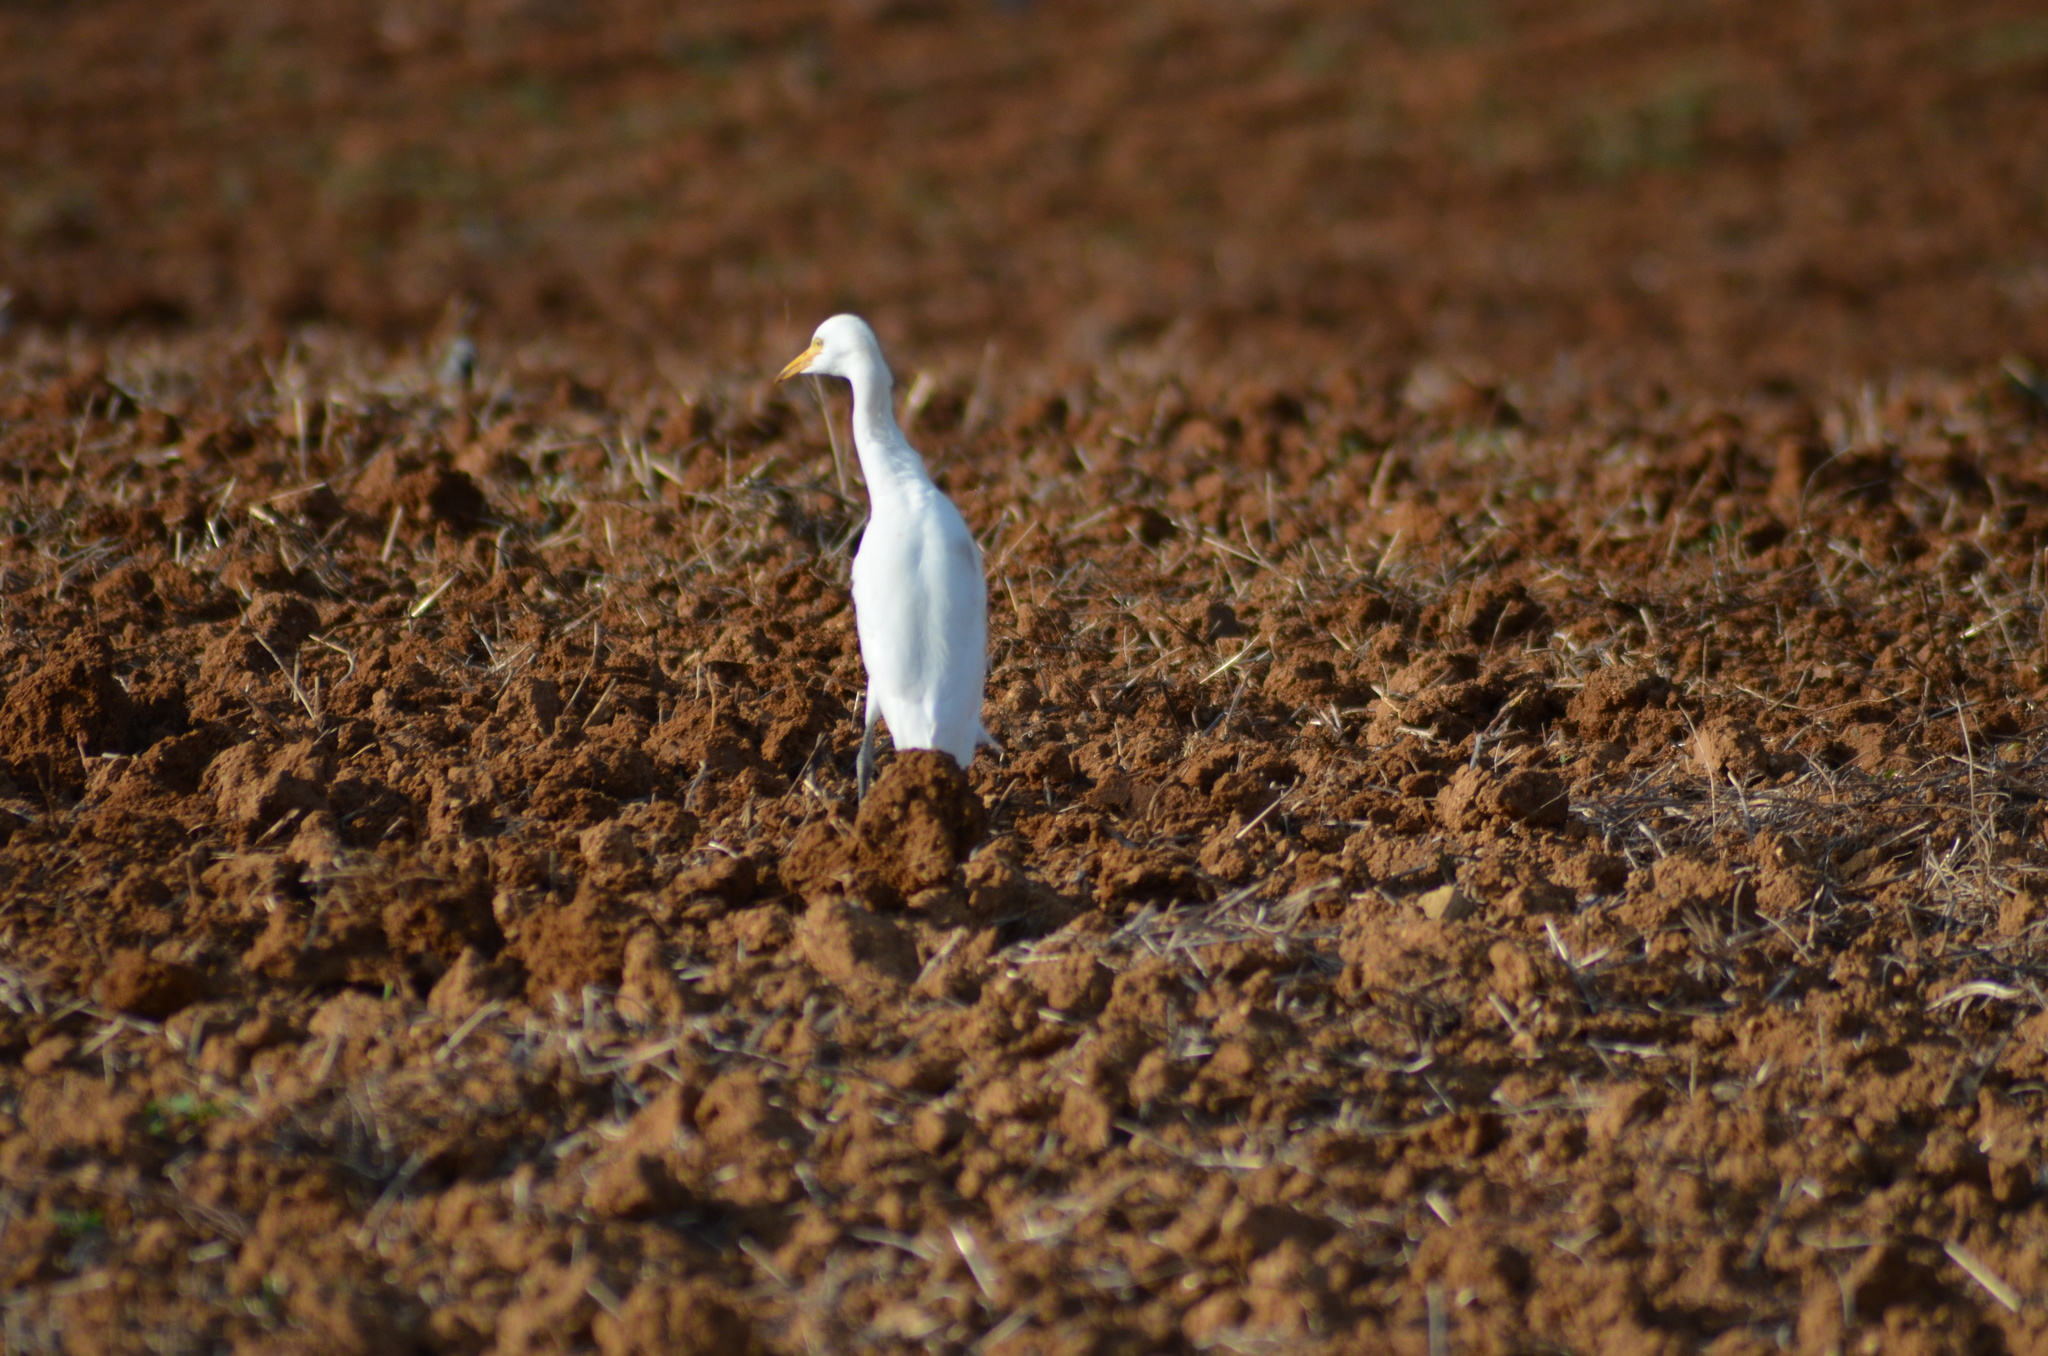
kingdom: Animalia
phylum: Chordata
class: Aves
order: Pelecaniformes
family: Ardeidae
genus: Bubulcus
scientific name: Bubulcus ibis
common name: Cattle egret
